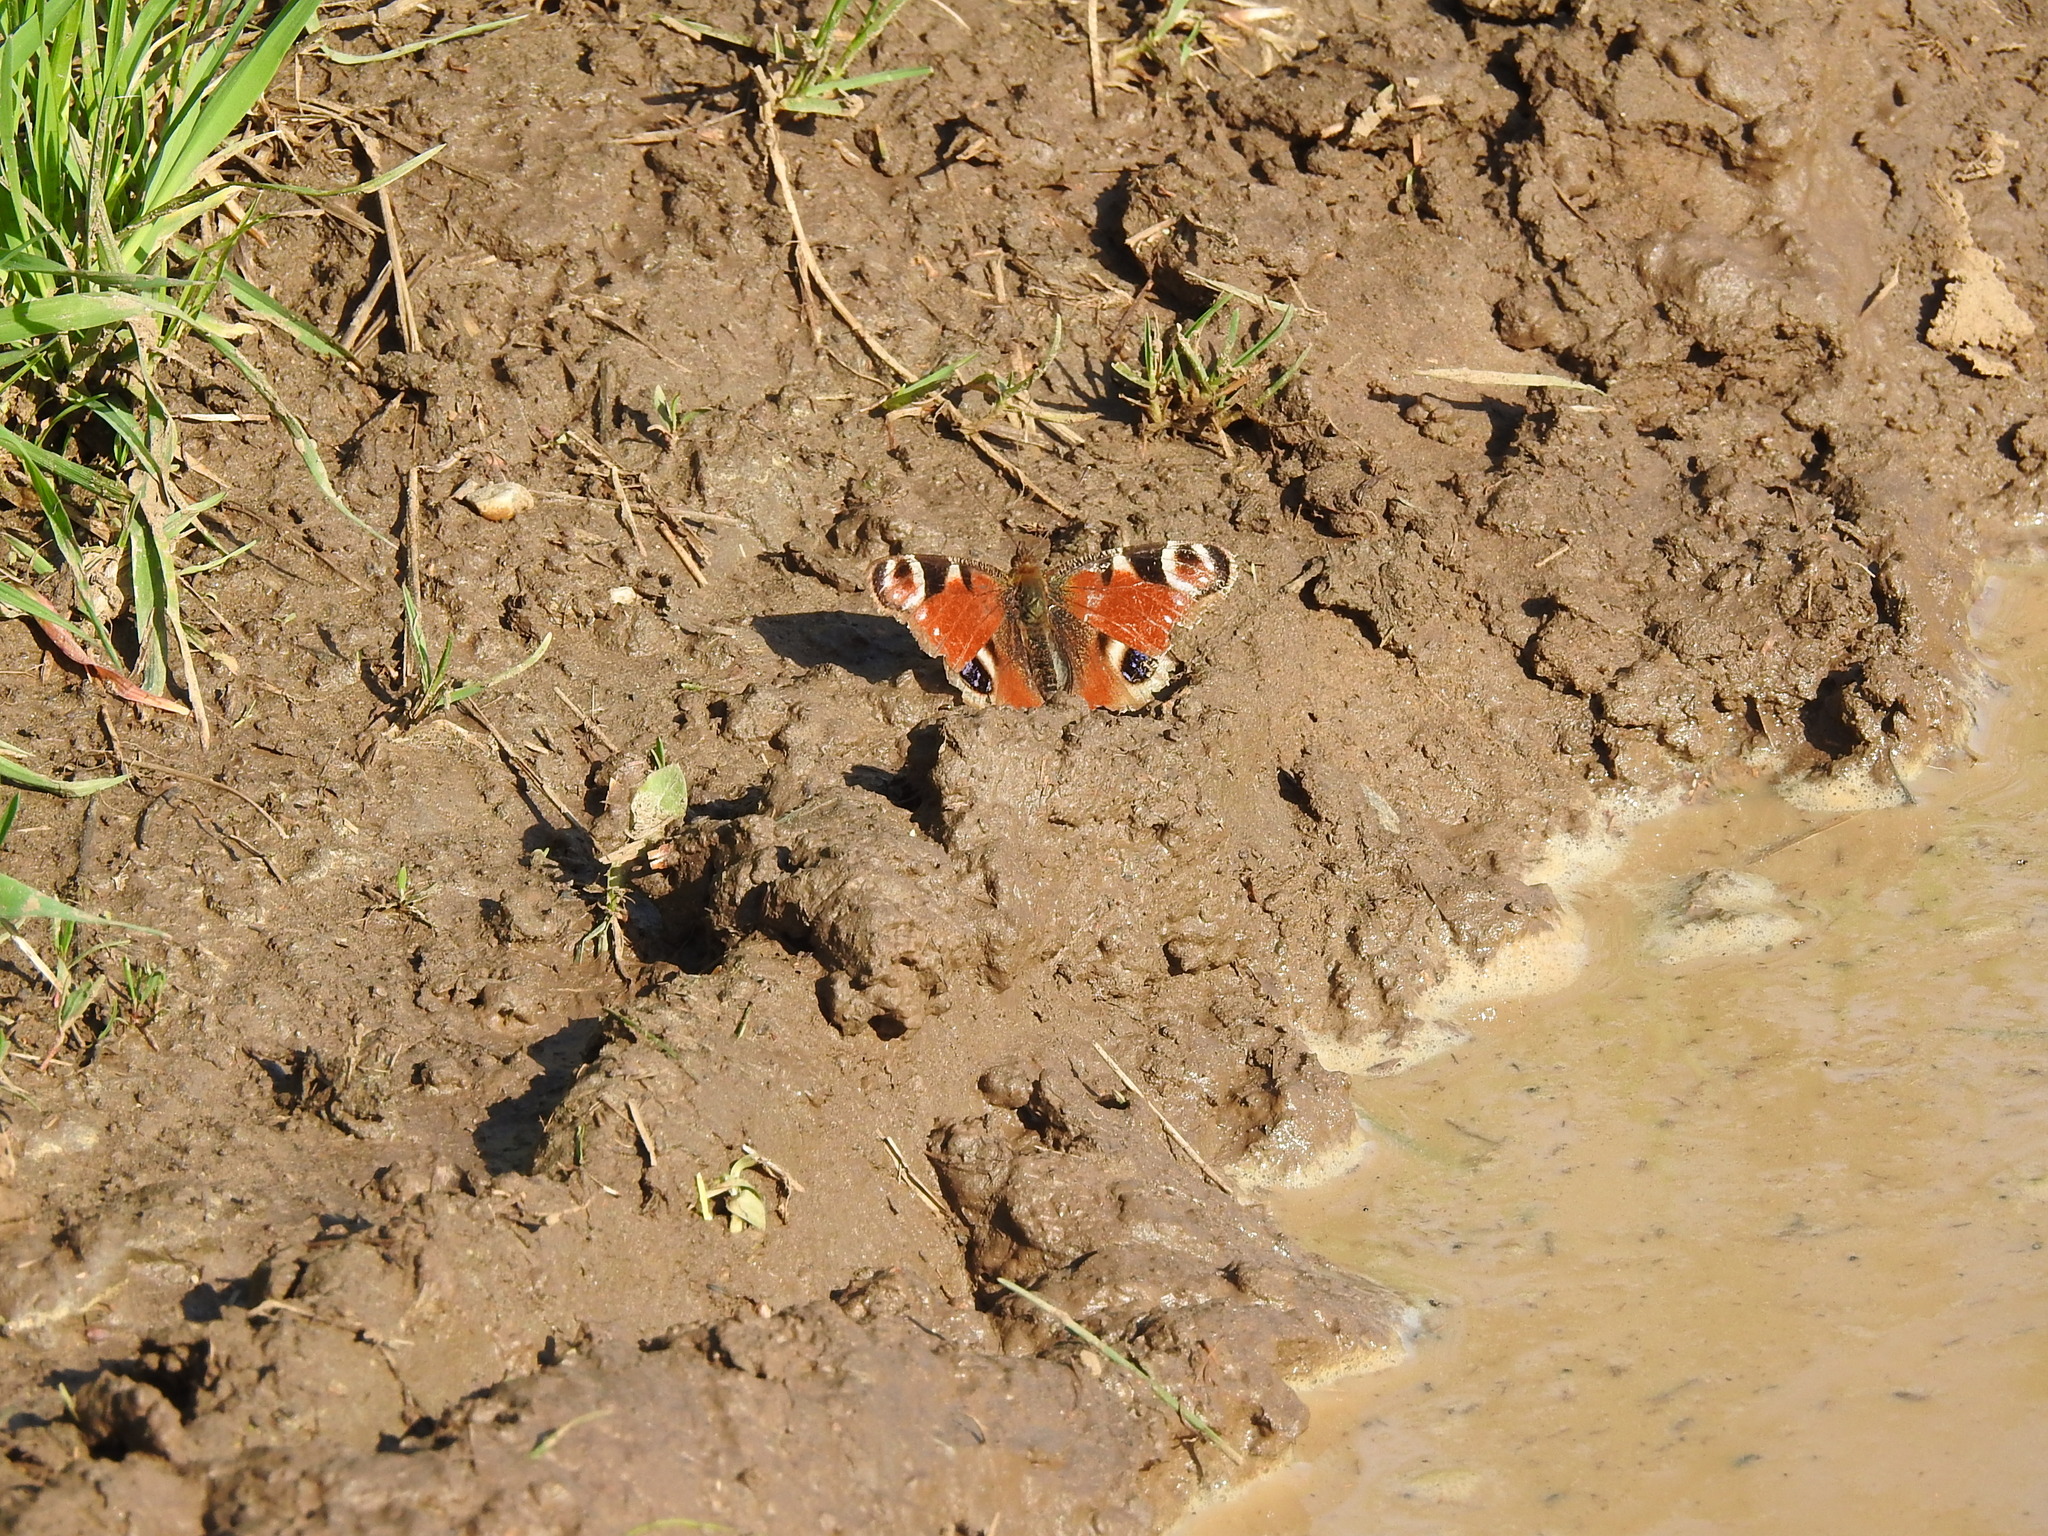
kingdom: Animalia
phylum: Arthropoda
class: Insecta
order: Lepidoptera
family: Nymphalidae
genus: Aglais
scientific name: Aglais io
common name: Peacock
